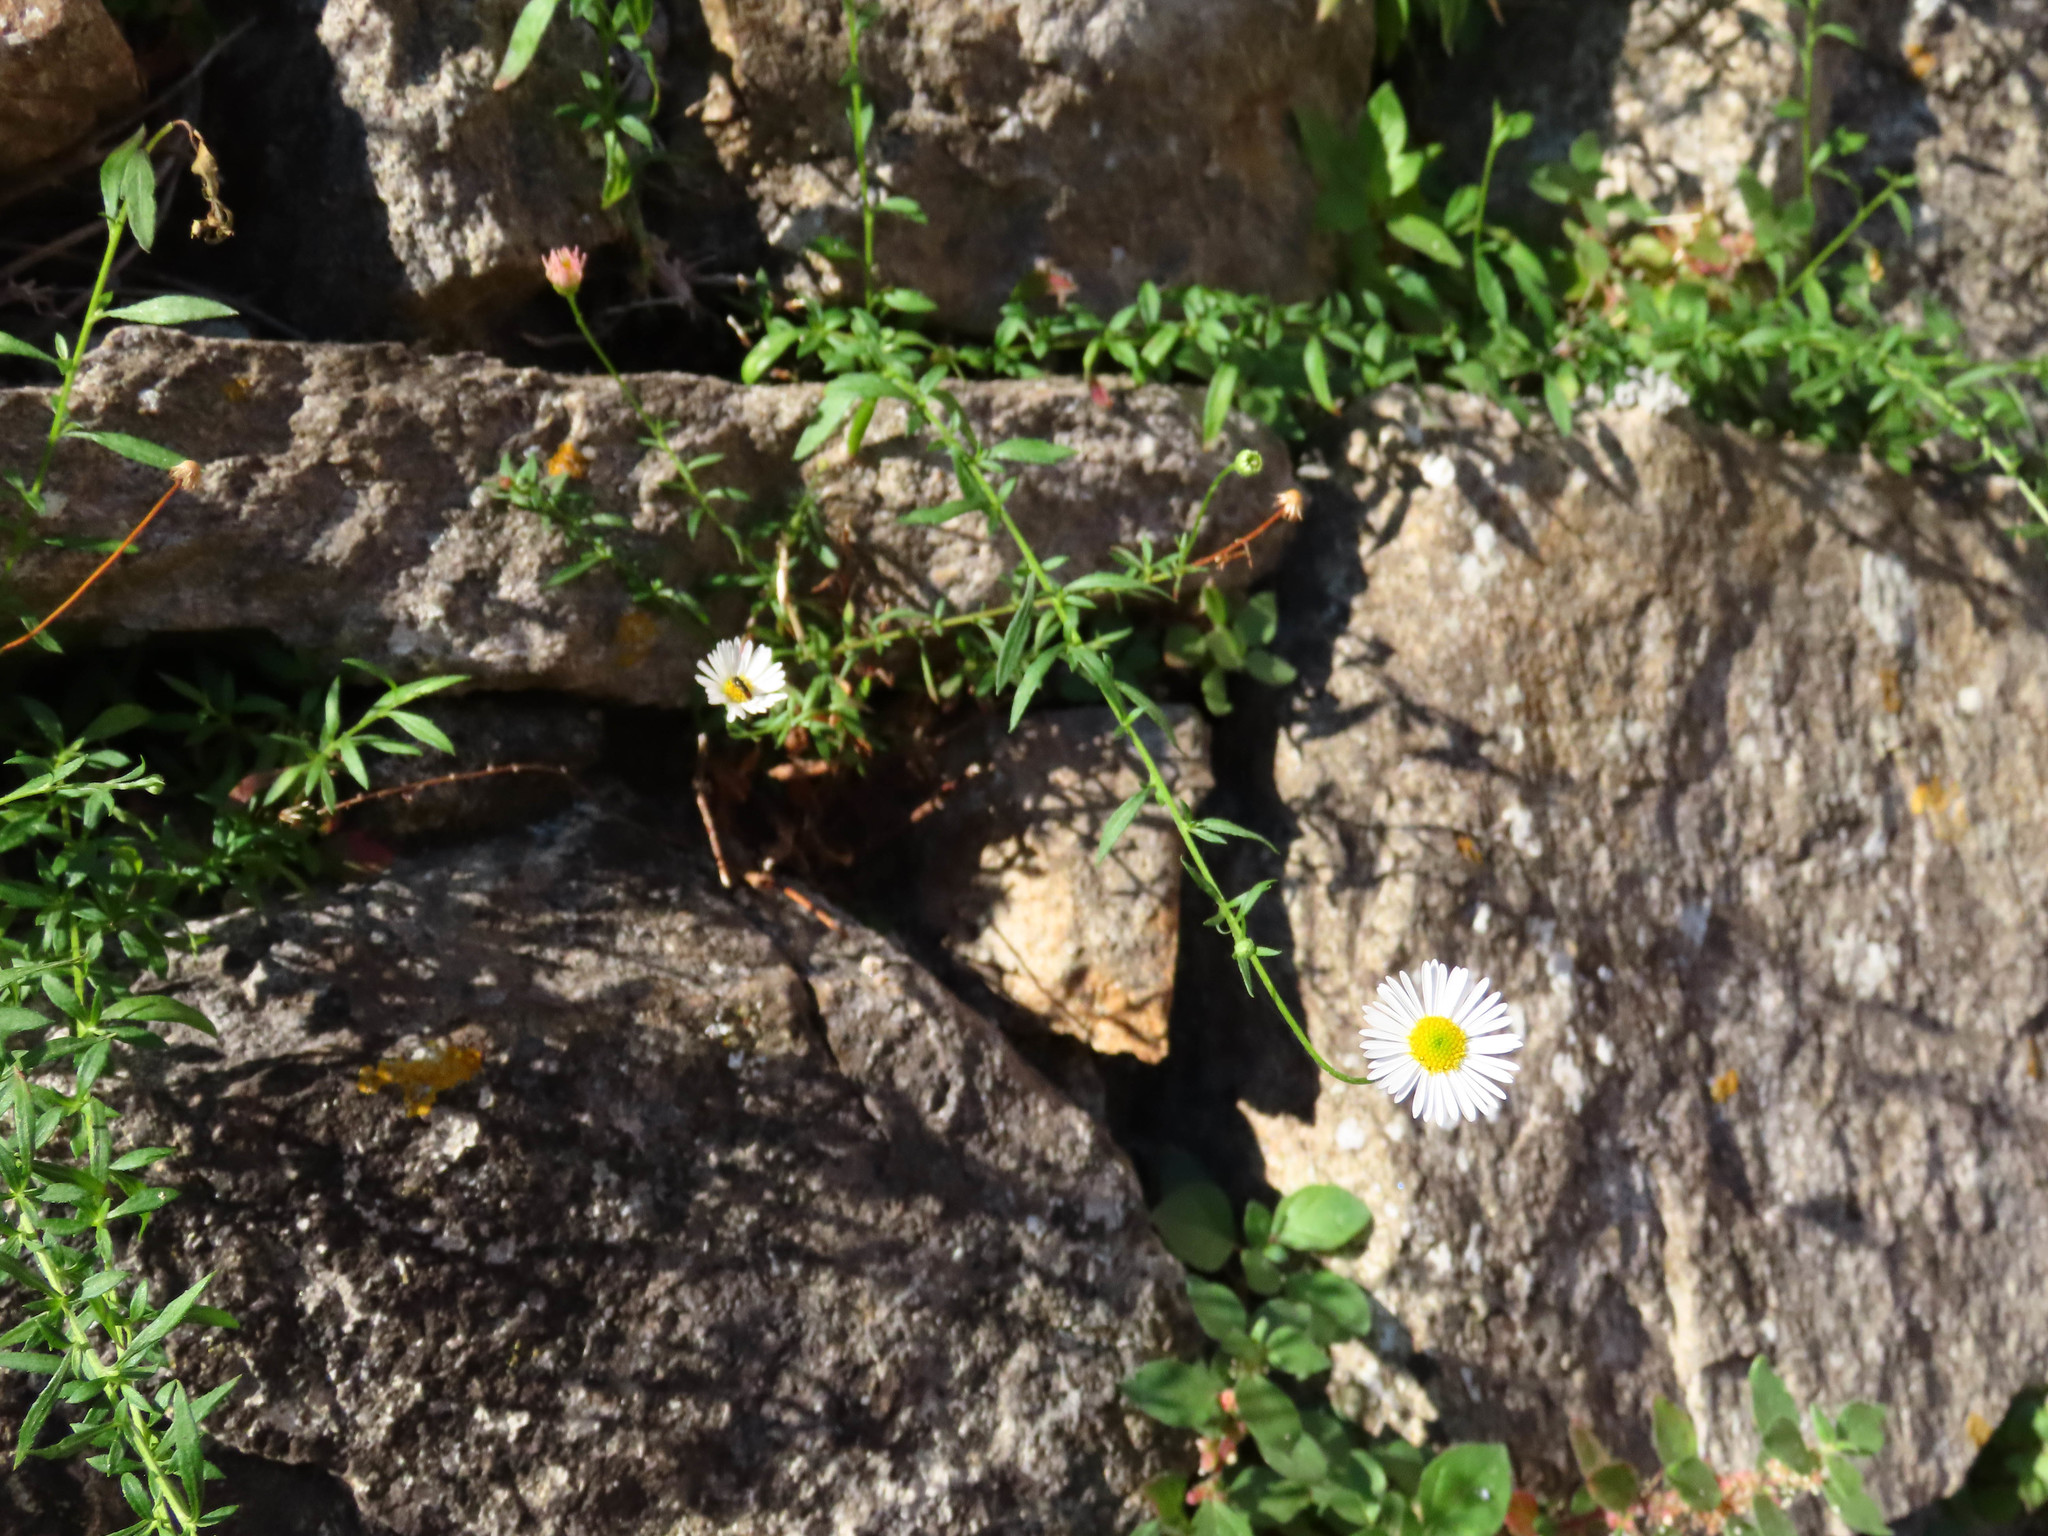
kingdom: Plantae
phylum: Tracheophyta
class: Magnoliopsida
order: Asterales
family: Asteraceae
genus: Erigeron
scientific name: Erigeron karvinskianus
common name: Mexican fleabane
